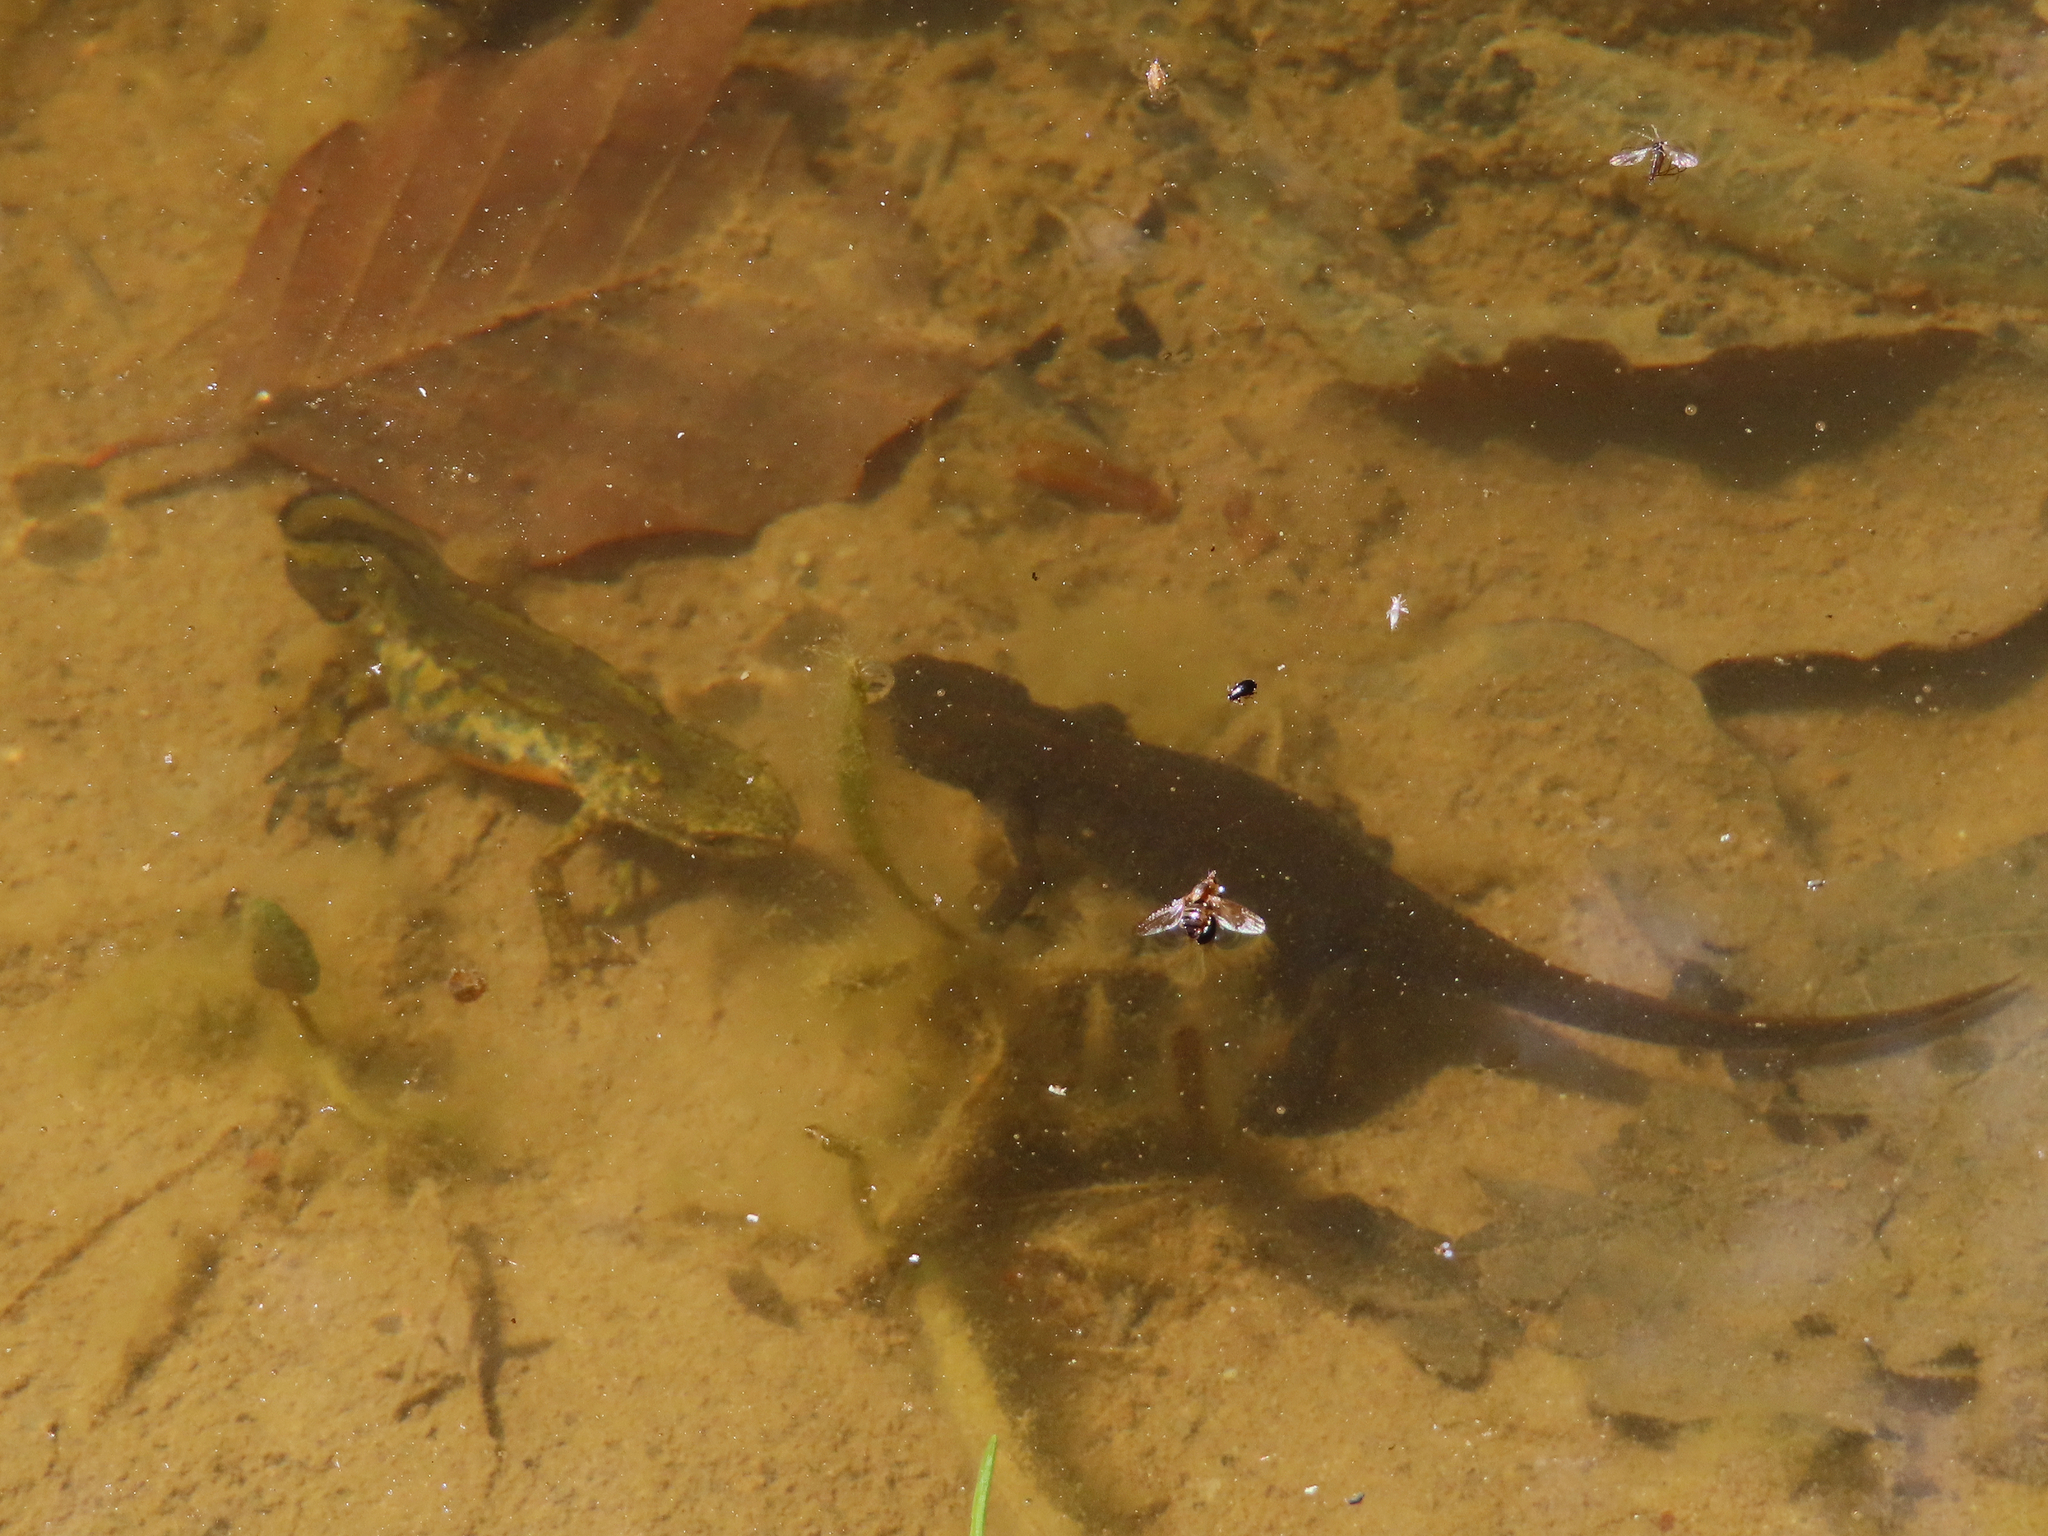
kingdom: Animalia
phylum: Chordata
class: Amphibia
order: Caudata
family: Salamandridae
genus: Lissotriton
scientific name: Lissotriton montandoni
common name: Carpathian newt
